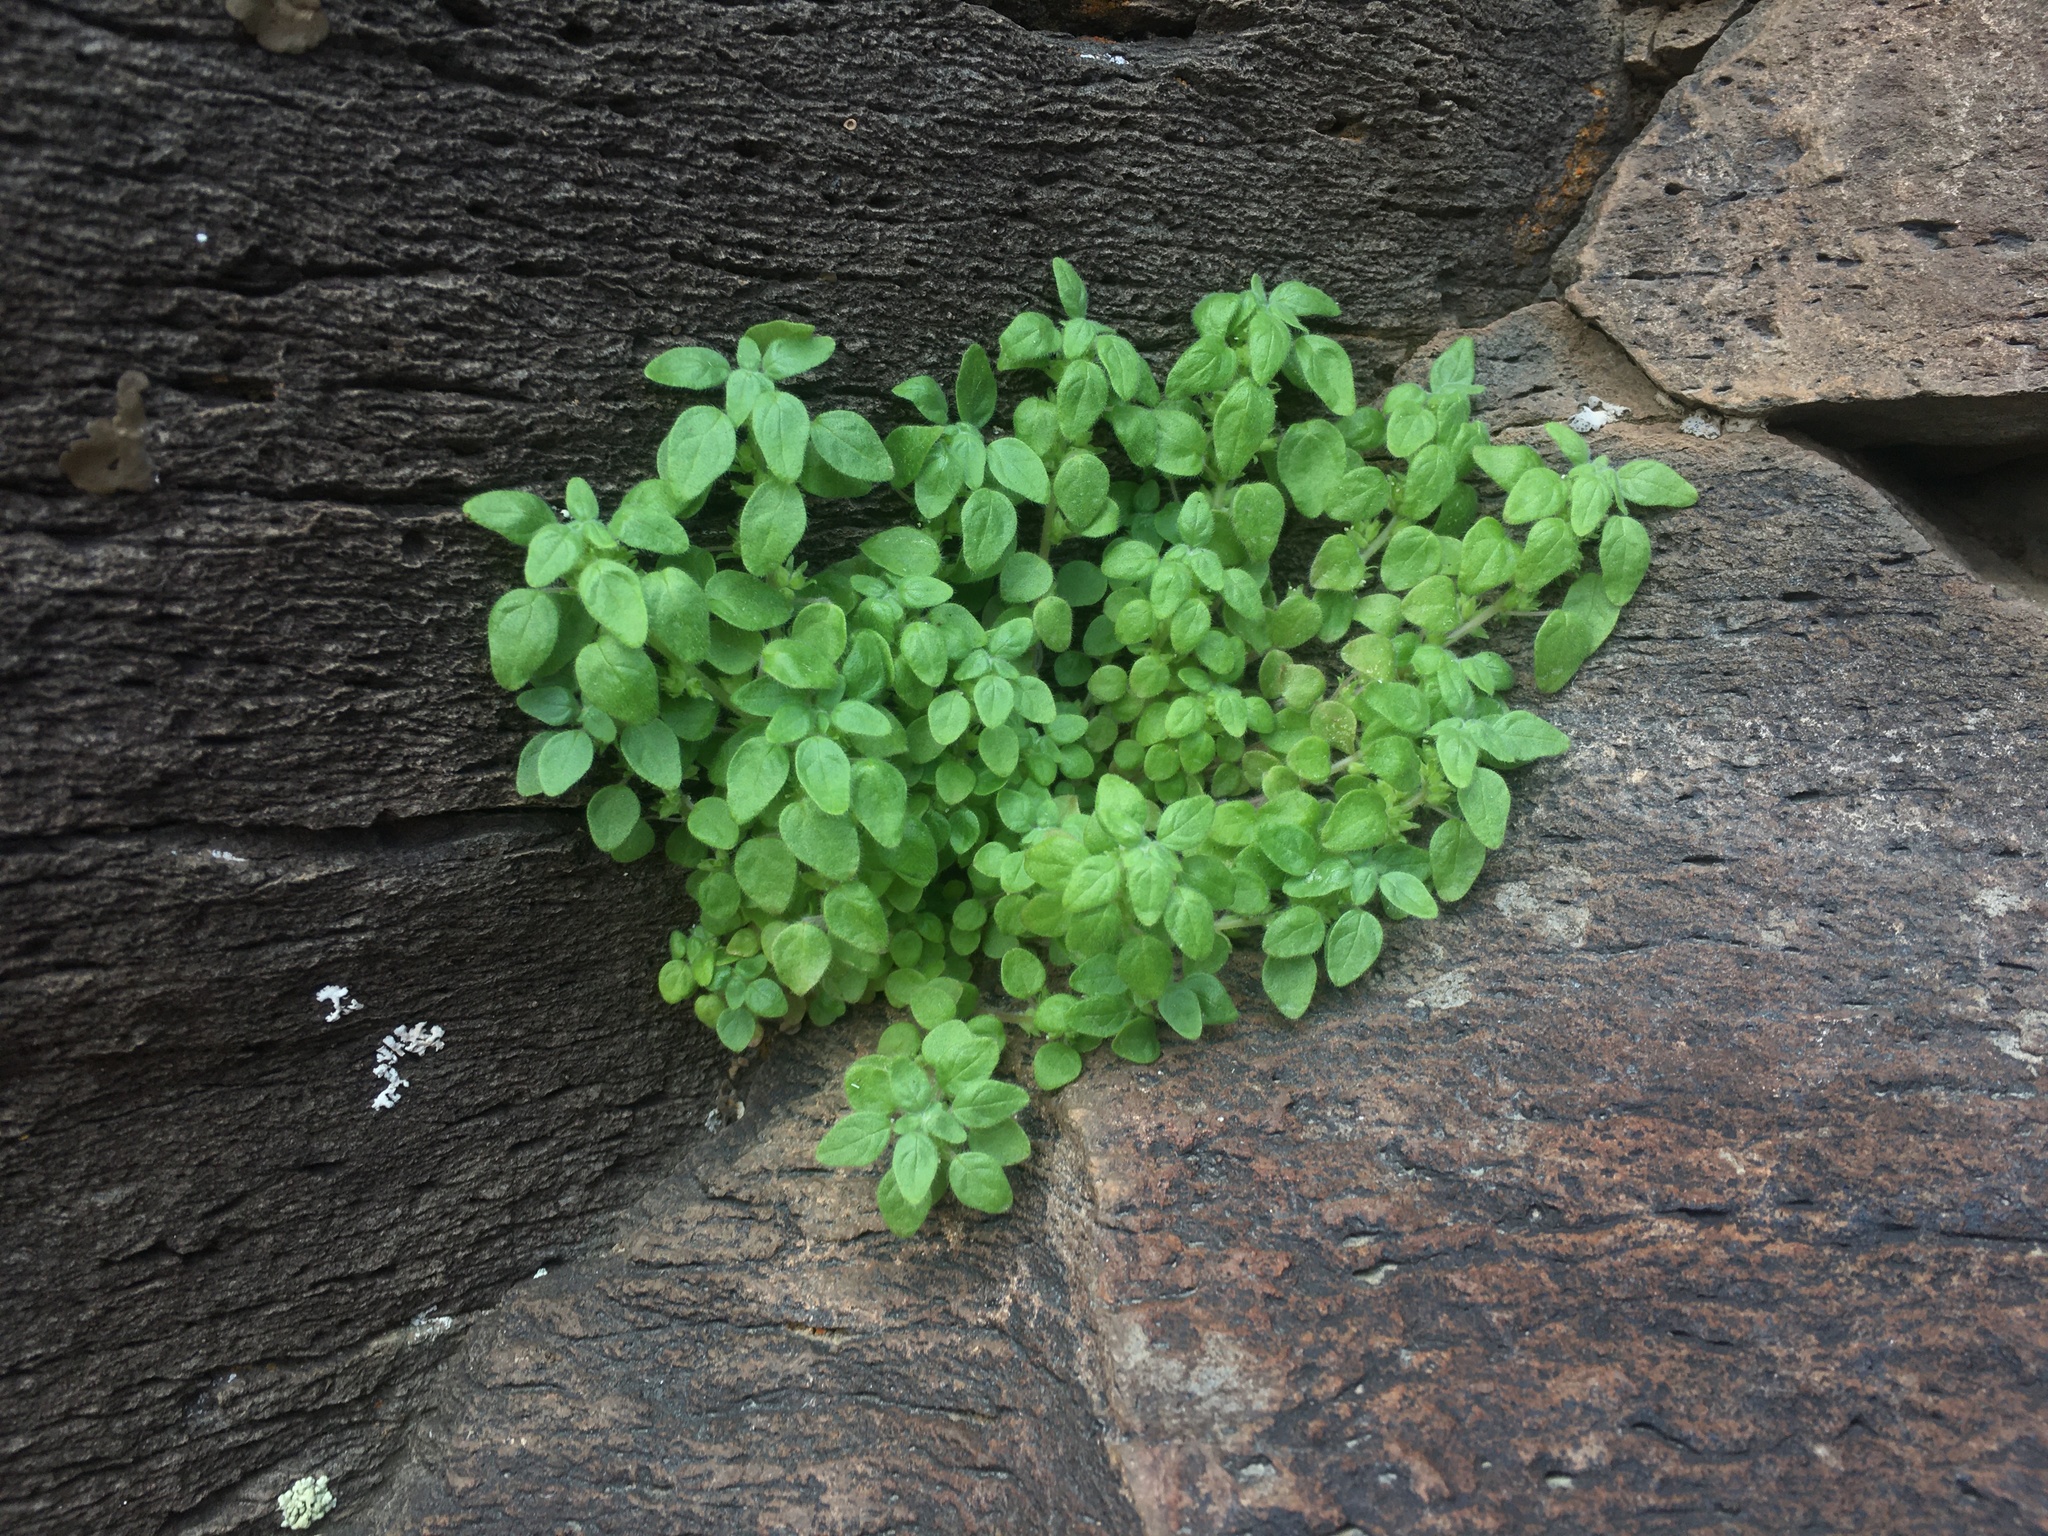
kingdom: Plantae
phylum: Tracheophyta
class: Magnoliopsida
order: Rosales
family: Urticaceae
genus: Parietaria
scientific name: Parietaria hespera
